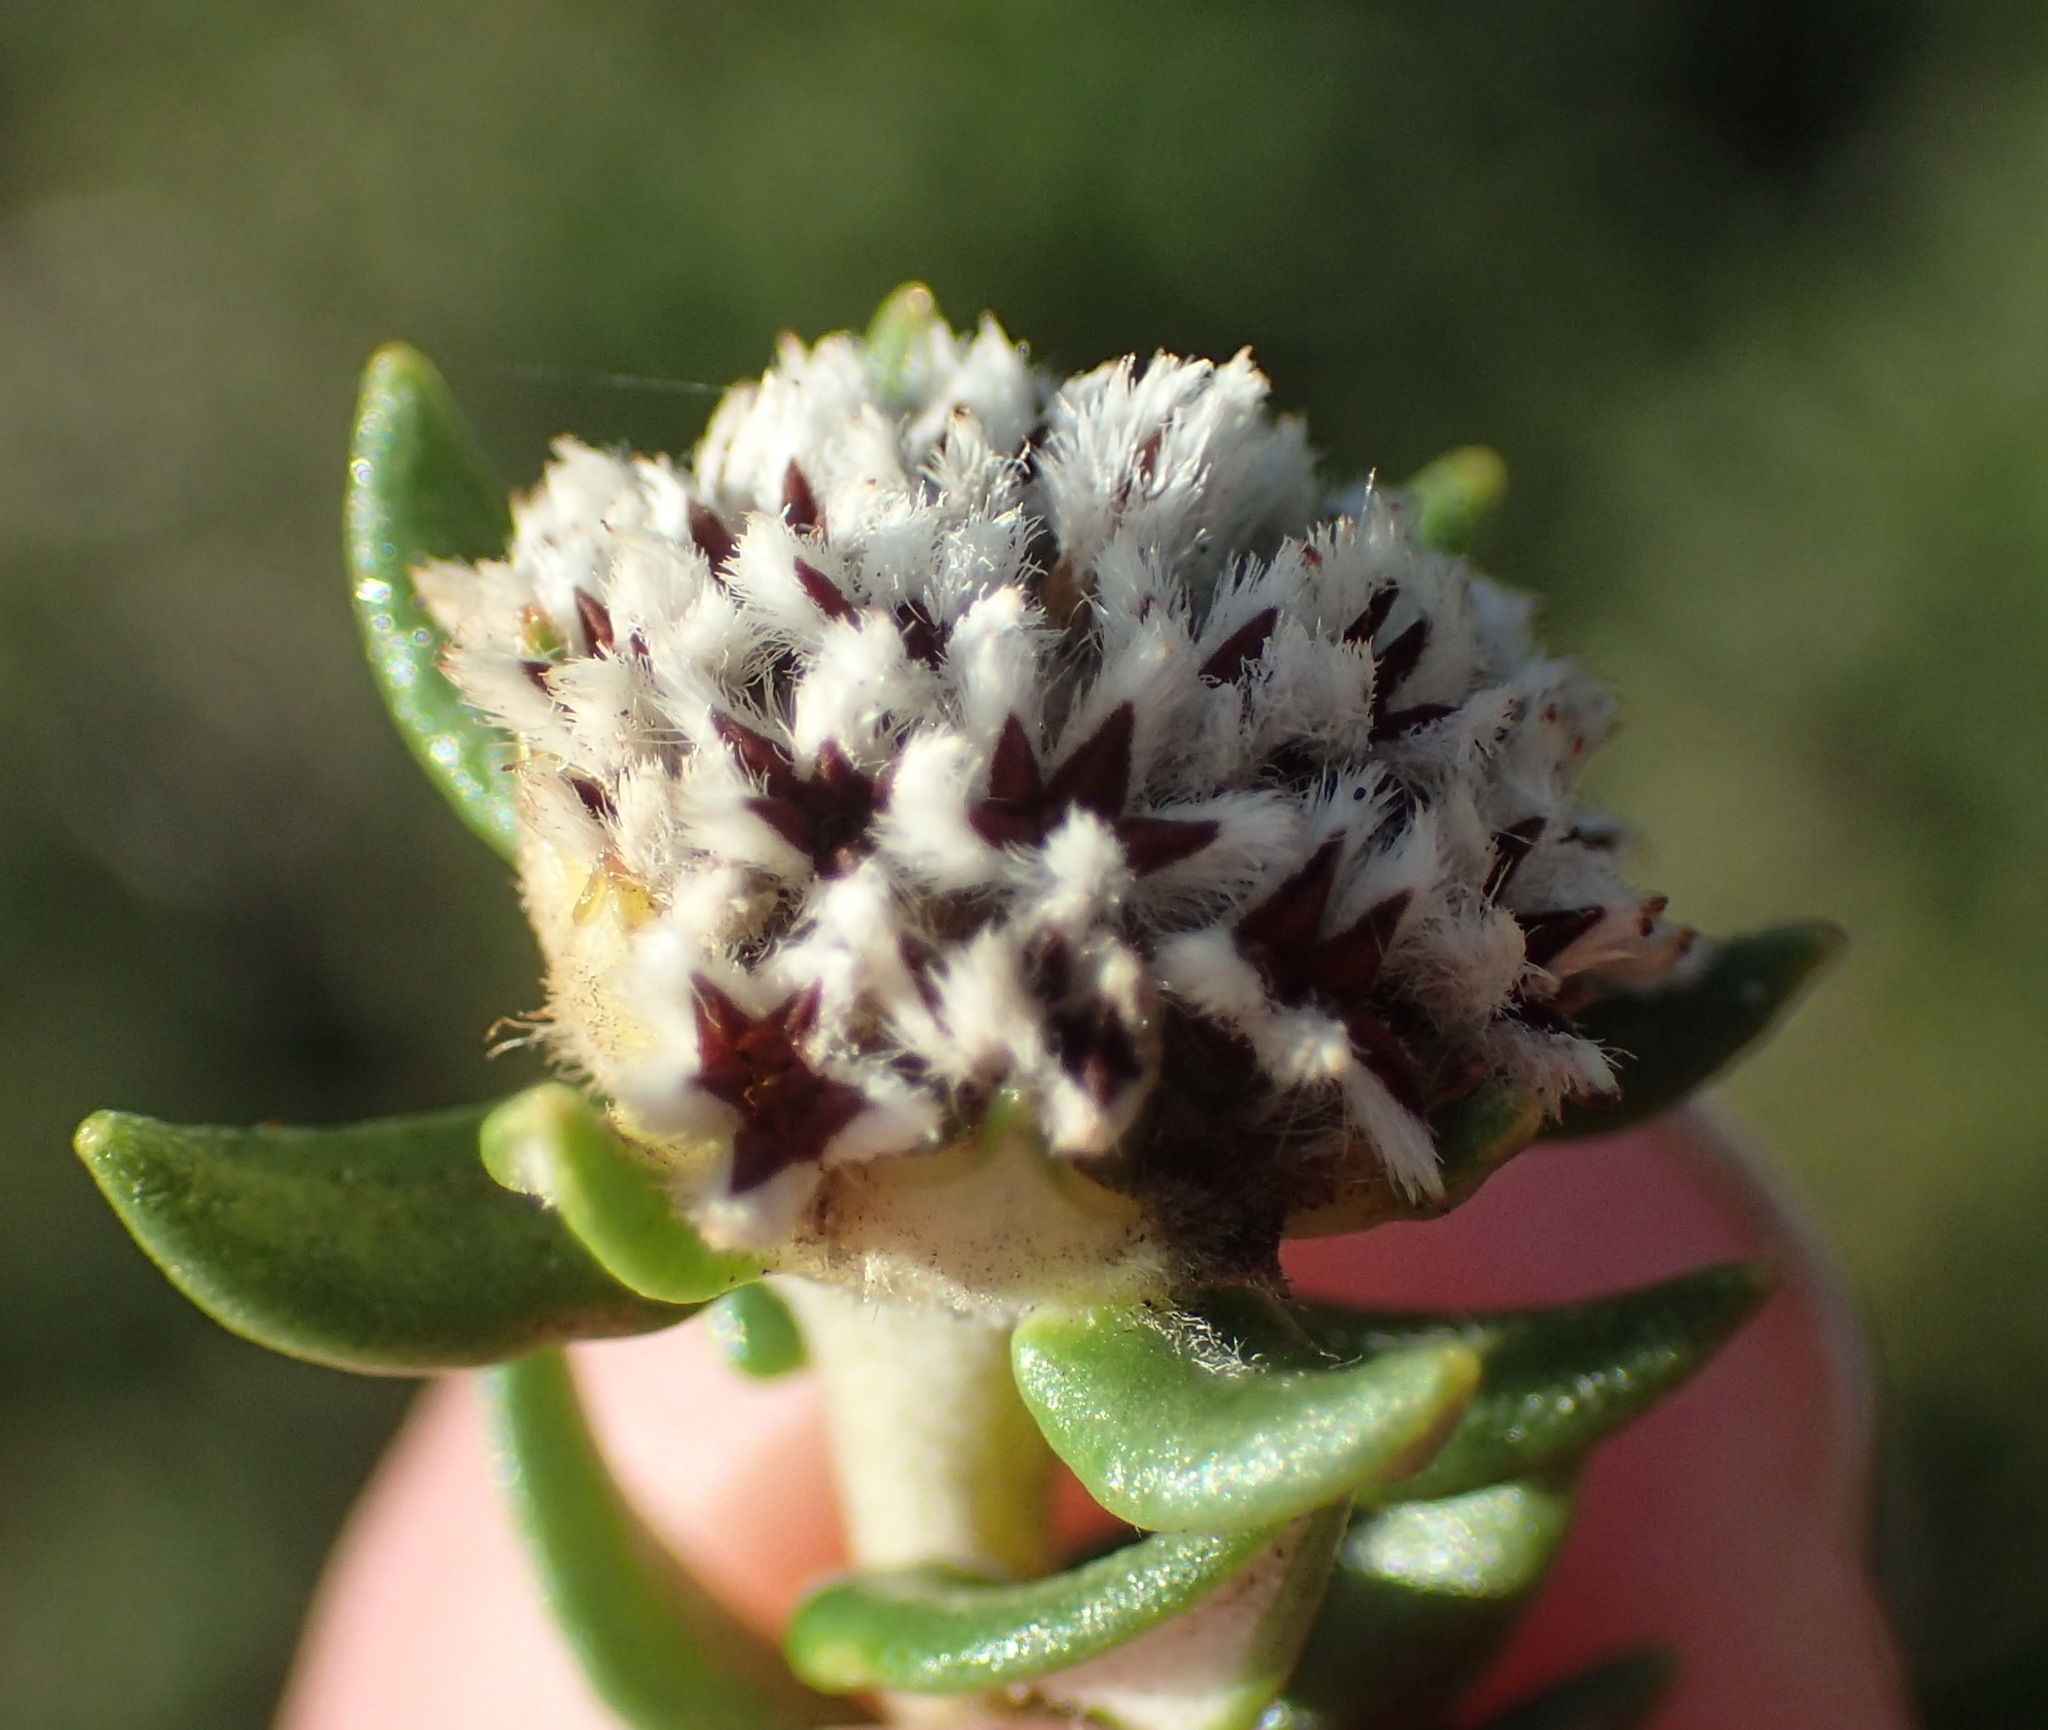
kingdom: Plantae
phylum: Tracheophyta
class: Magnoliopsida
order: Rosales
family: Rhamnaceae
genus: Phylica
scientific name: Phylica litoralis
